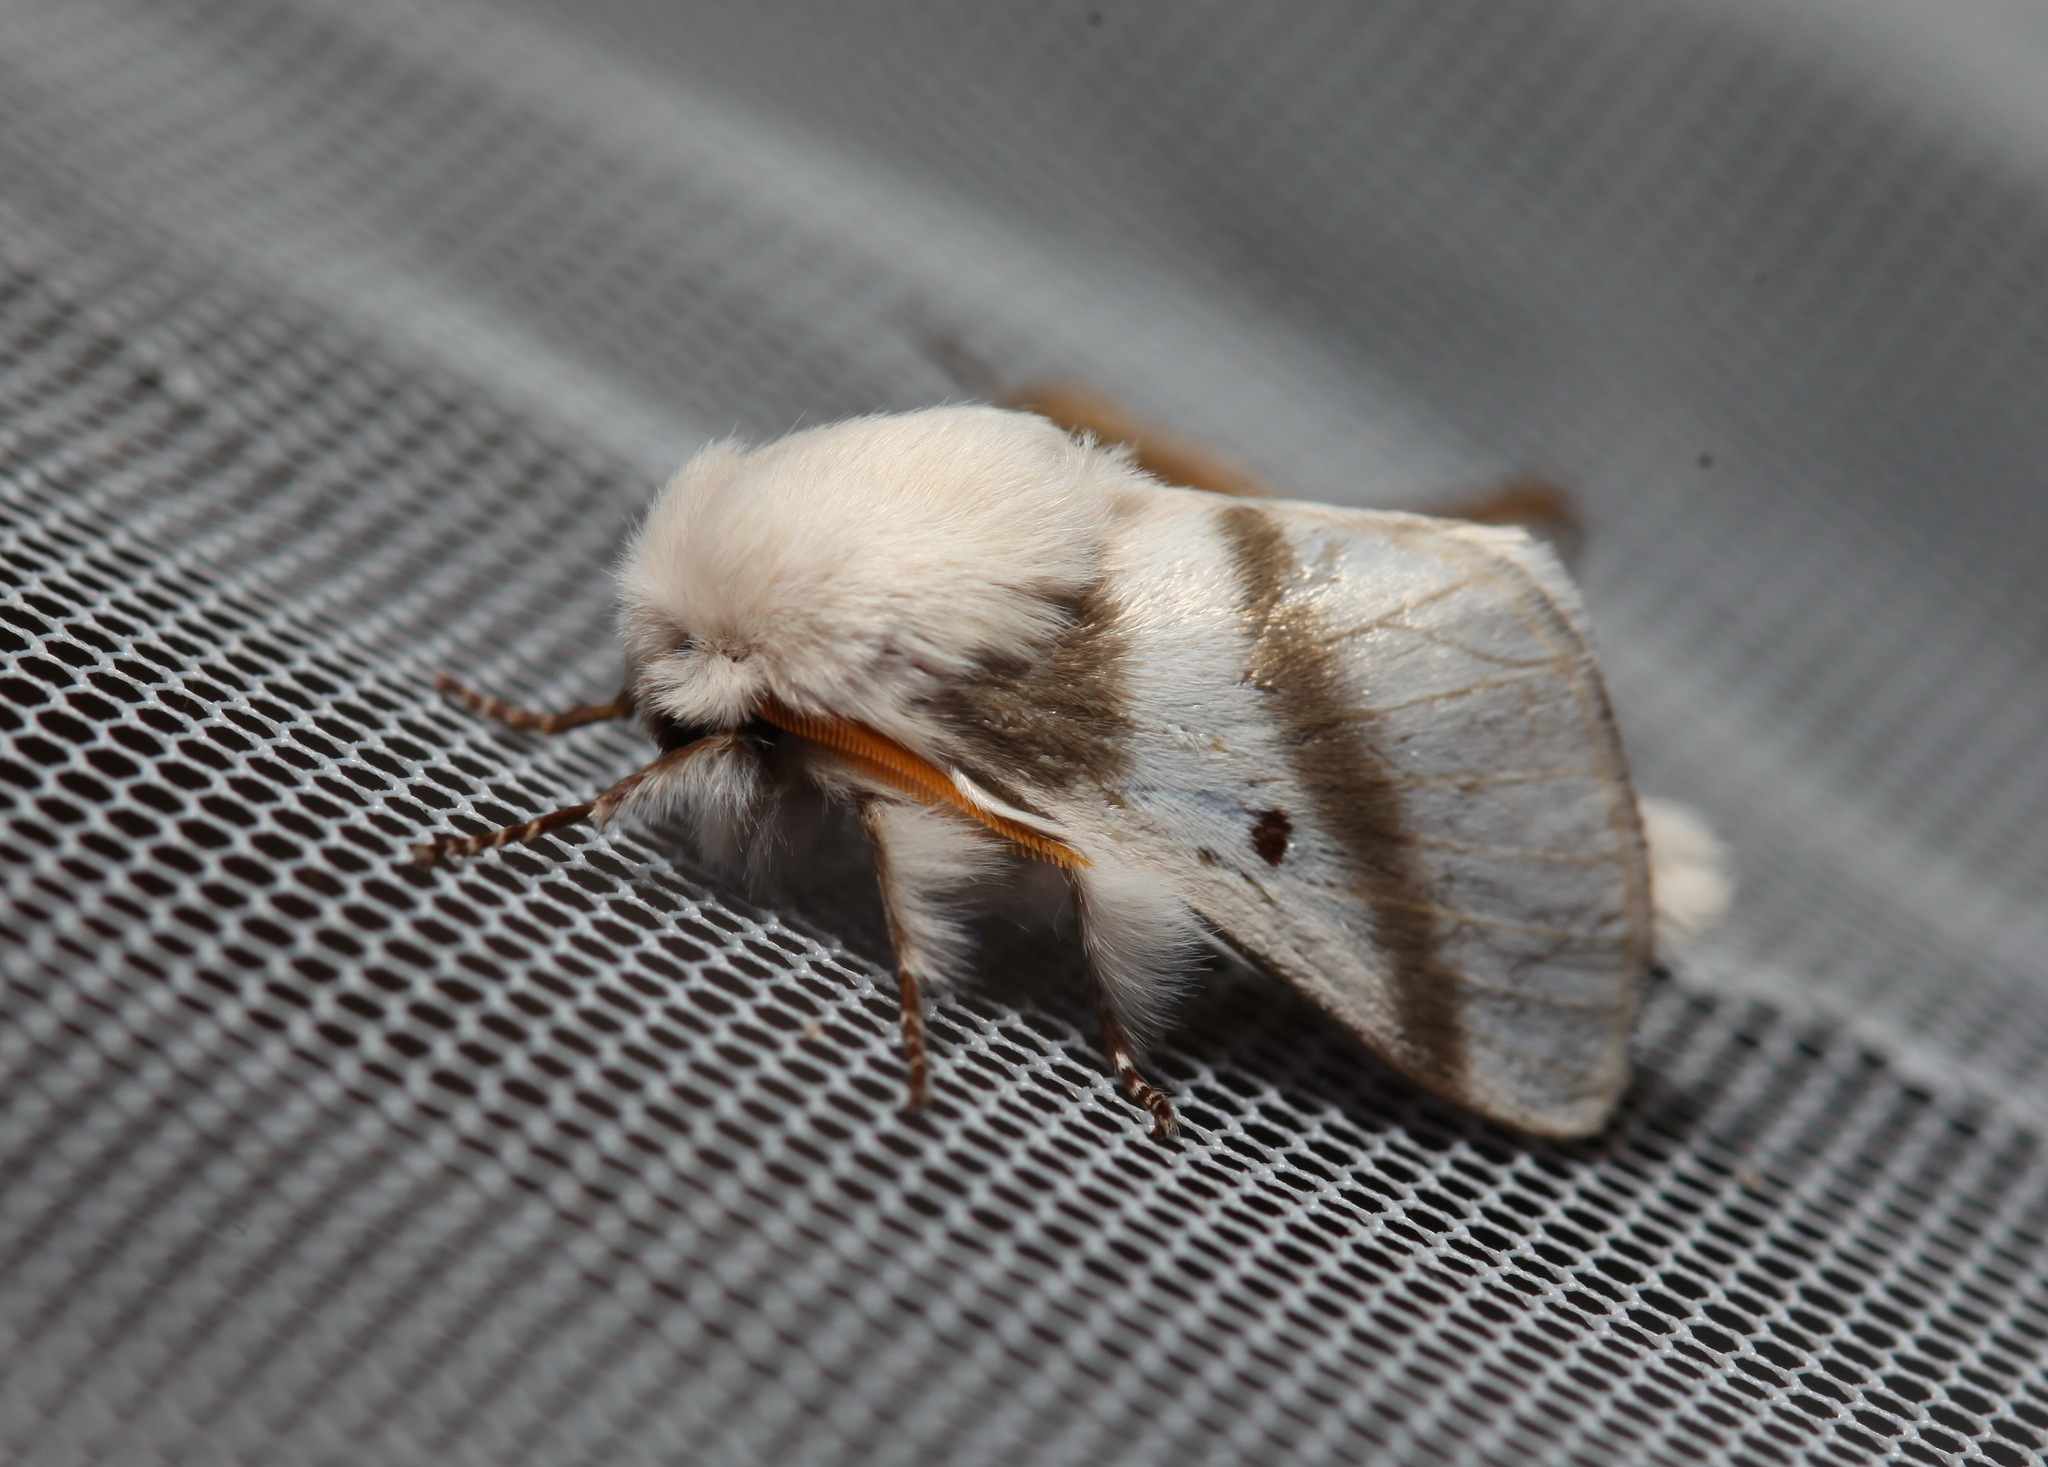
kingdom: Animalia
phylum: Arthropoda
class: Insecta
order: Lepidoptera
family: Lasiocampidae
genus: Bombycomorpha
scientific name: Bombycomorpha bifascia
